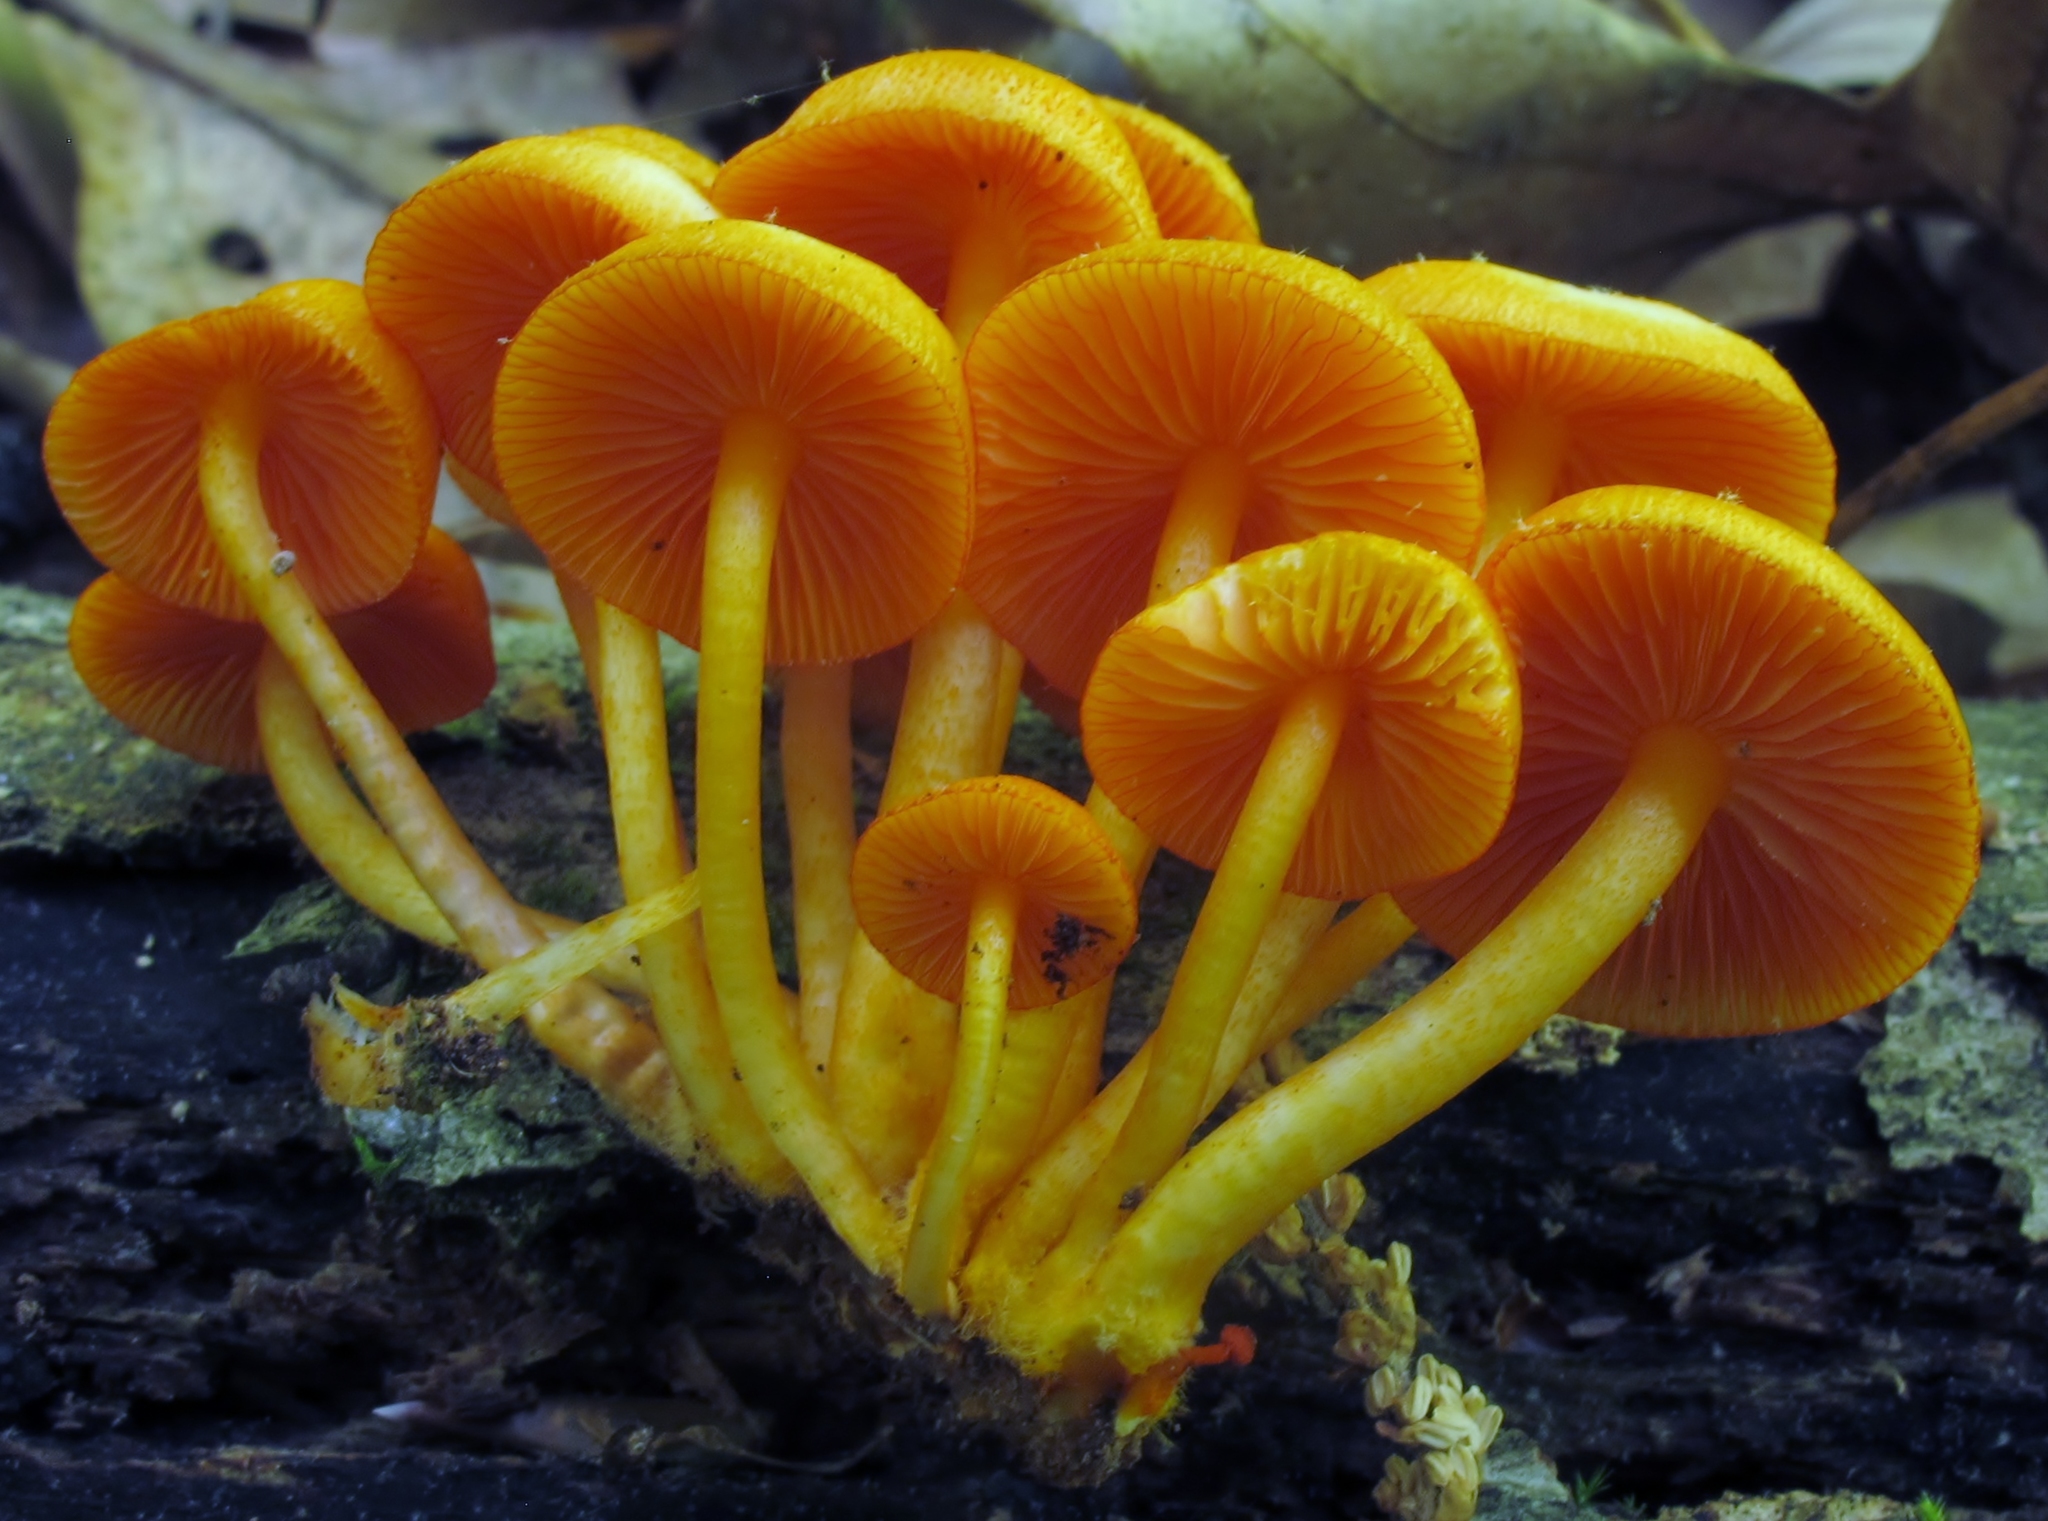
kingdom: Fungi
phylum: Basidiomycota
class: Agaricomycetes
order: Agaricales
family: Mycenaceae
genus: Mycena
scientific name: Mycena leaiana
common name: Orange mycena
